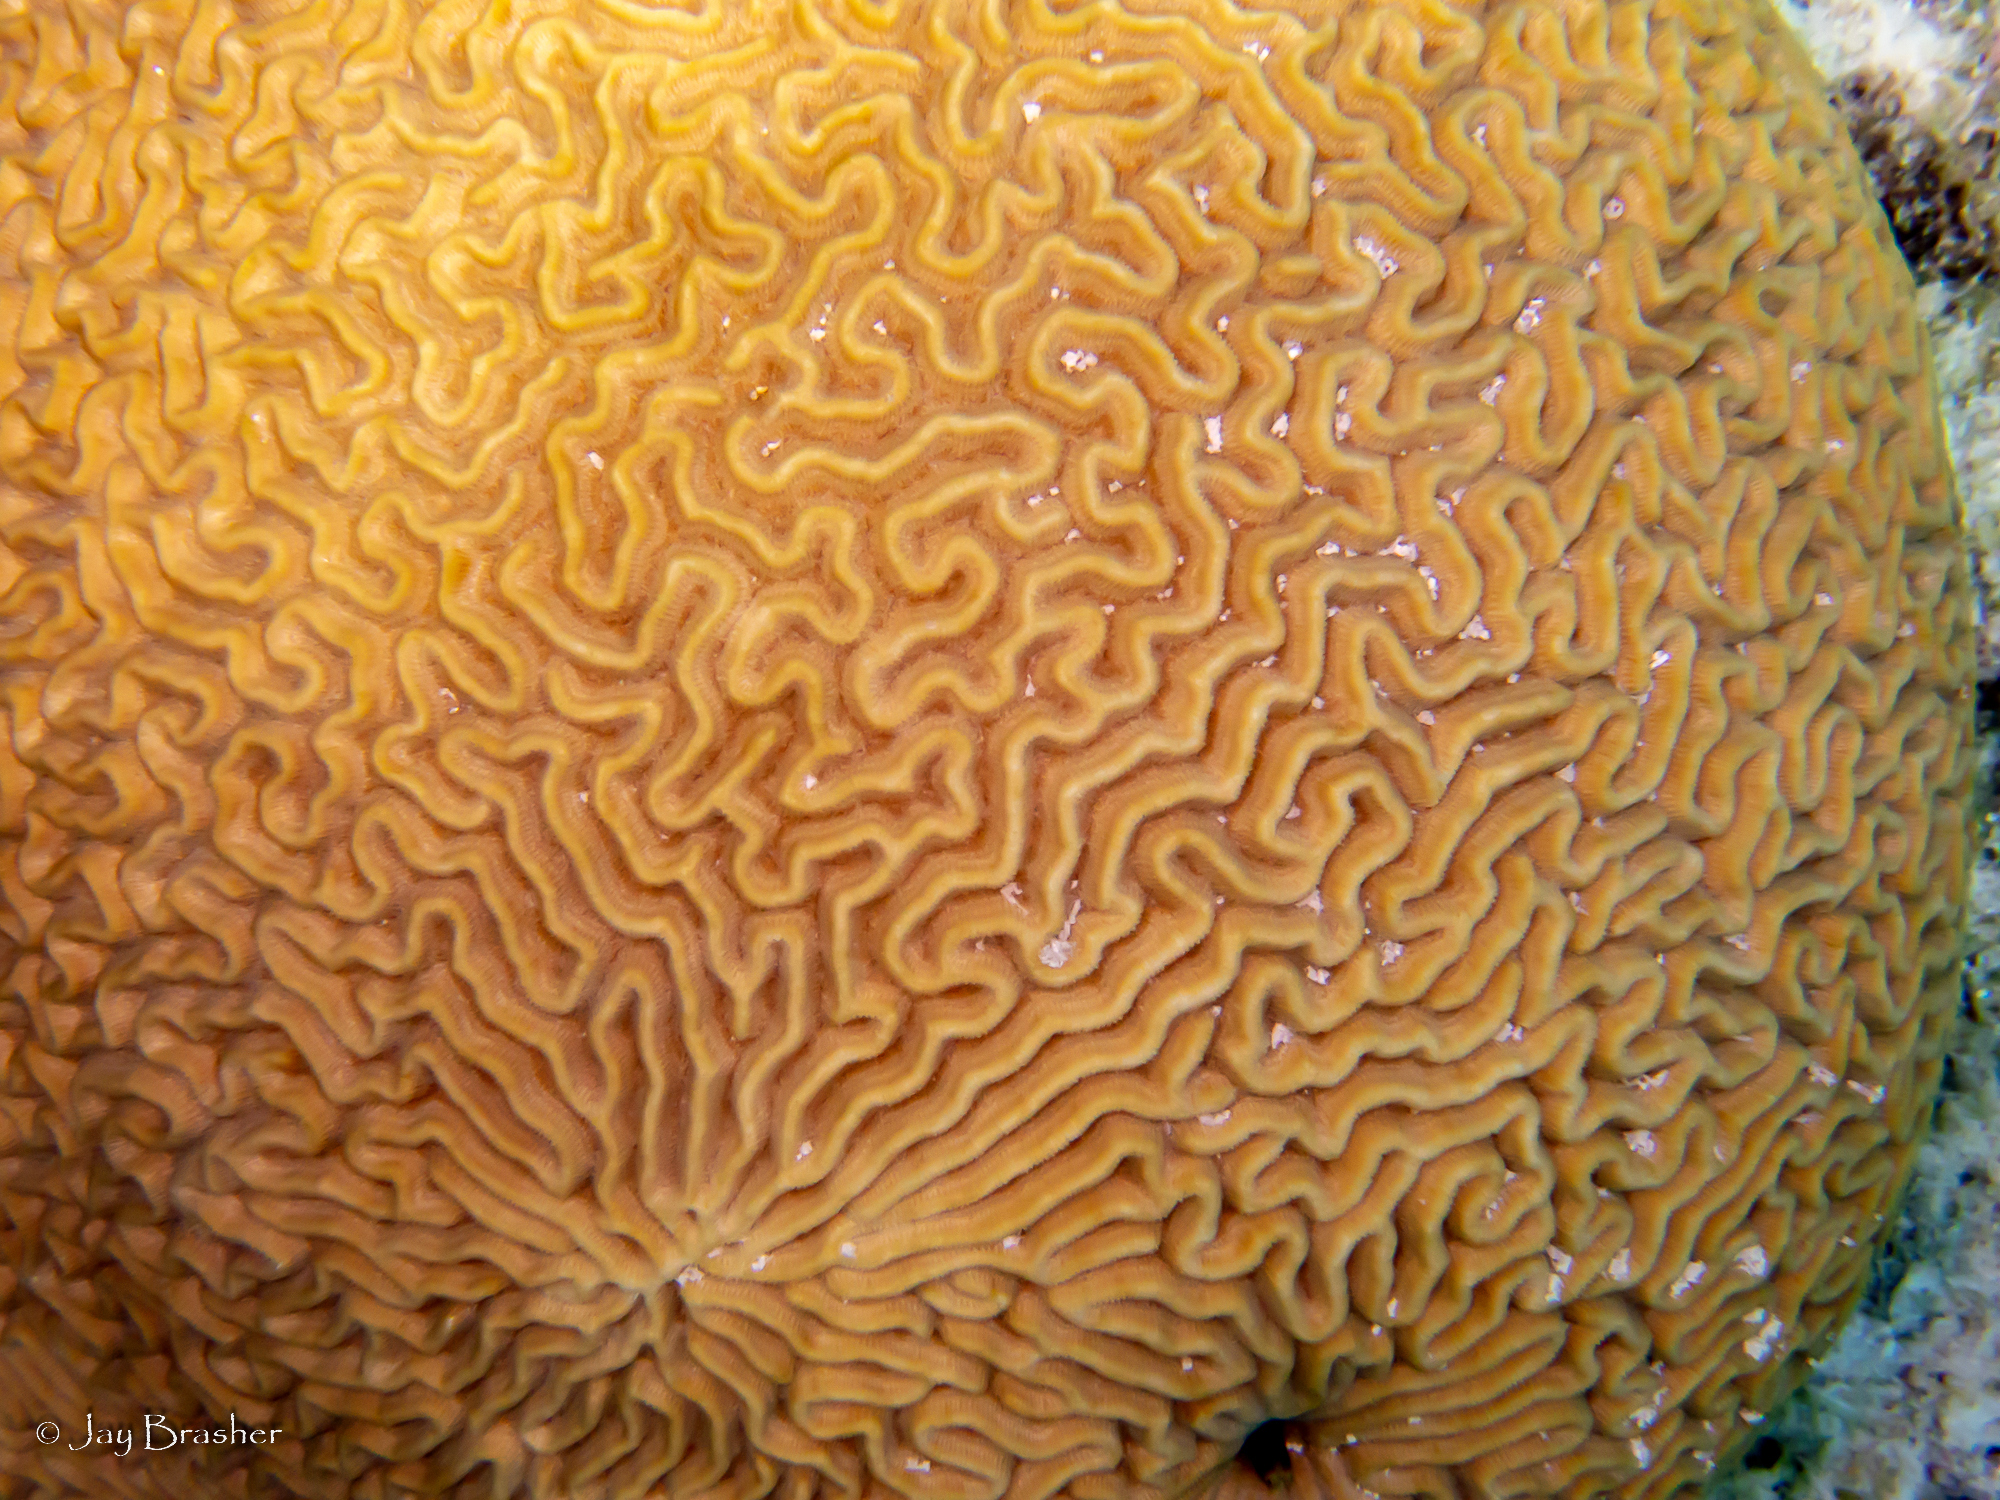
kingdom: Animalia
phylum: Cnidaria
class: Anthozoa
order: Scleractinia
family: Faviidae
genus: Pseudodiploria
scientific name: Pseudodiploria strigosa
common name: Symmetrical brain coral
